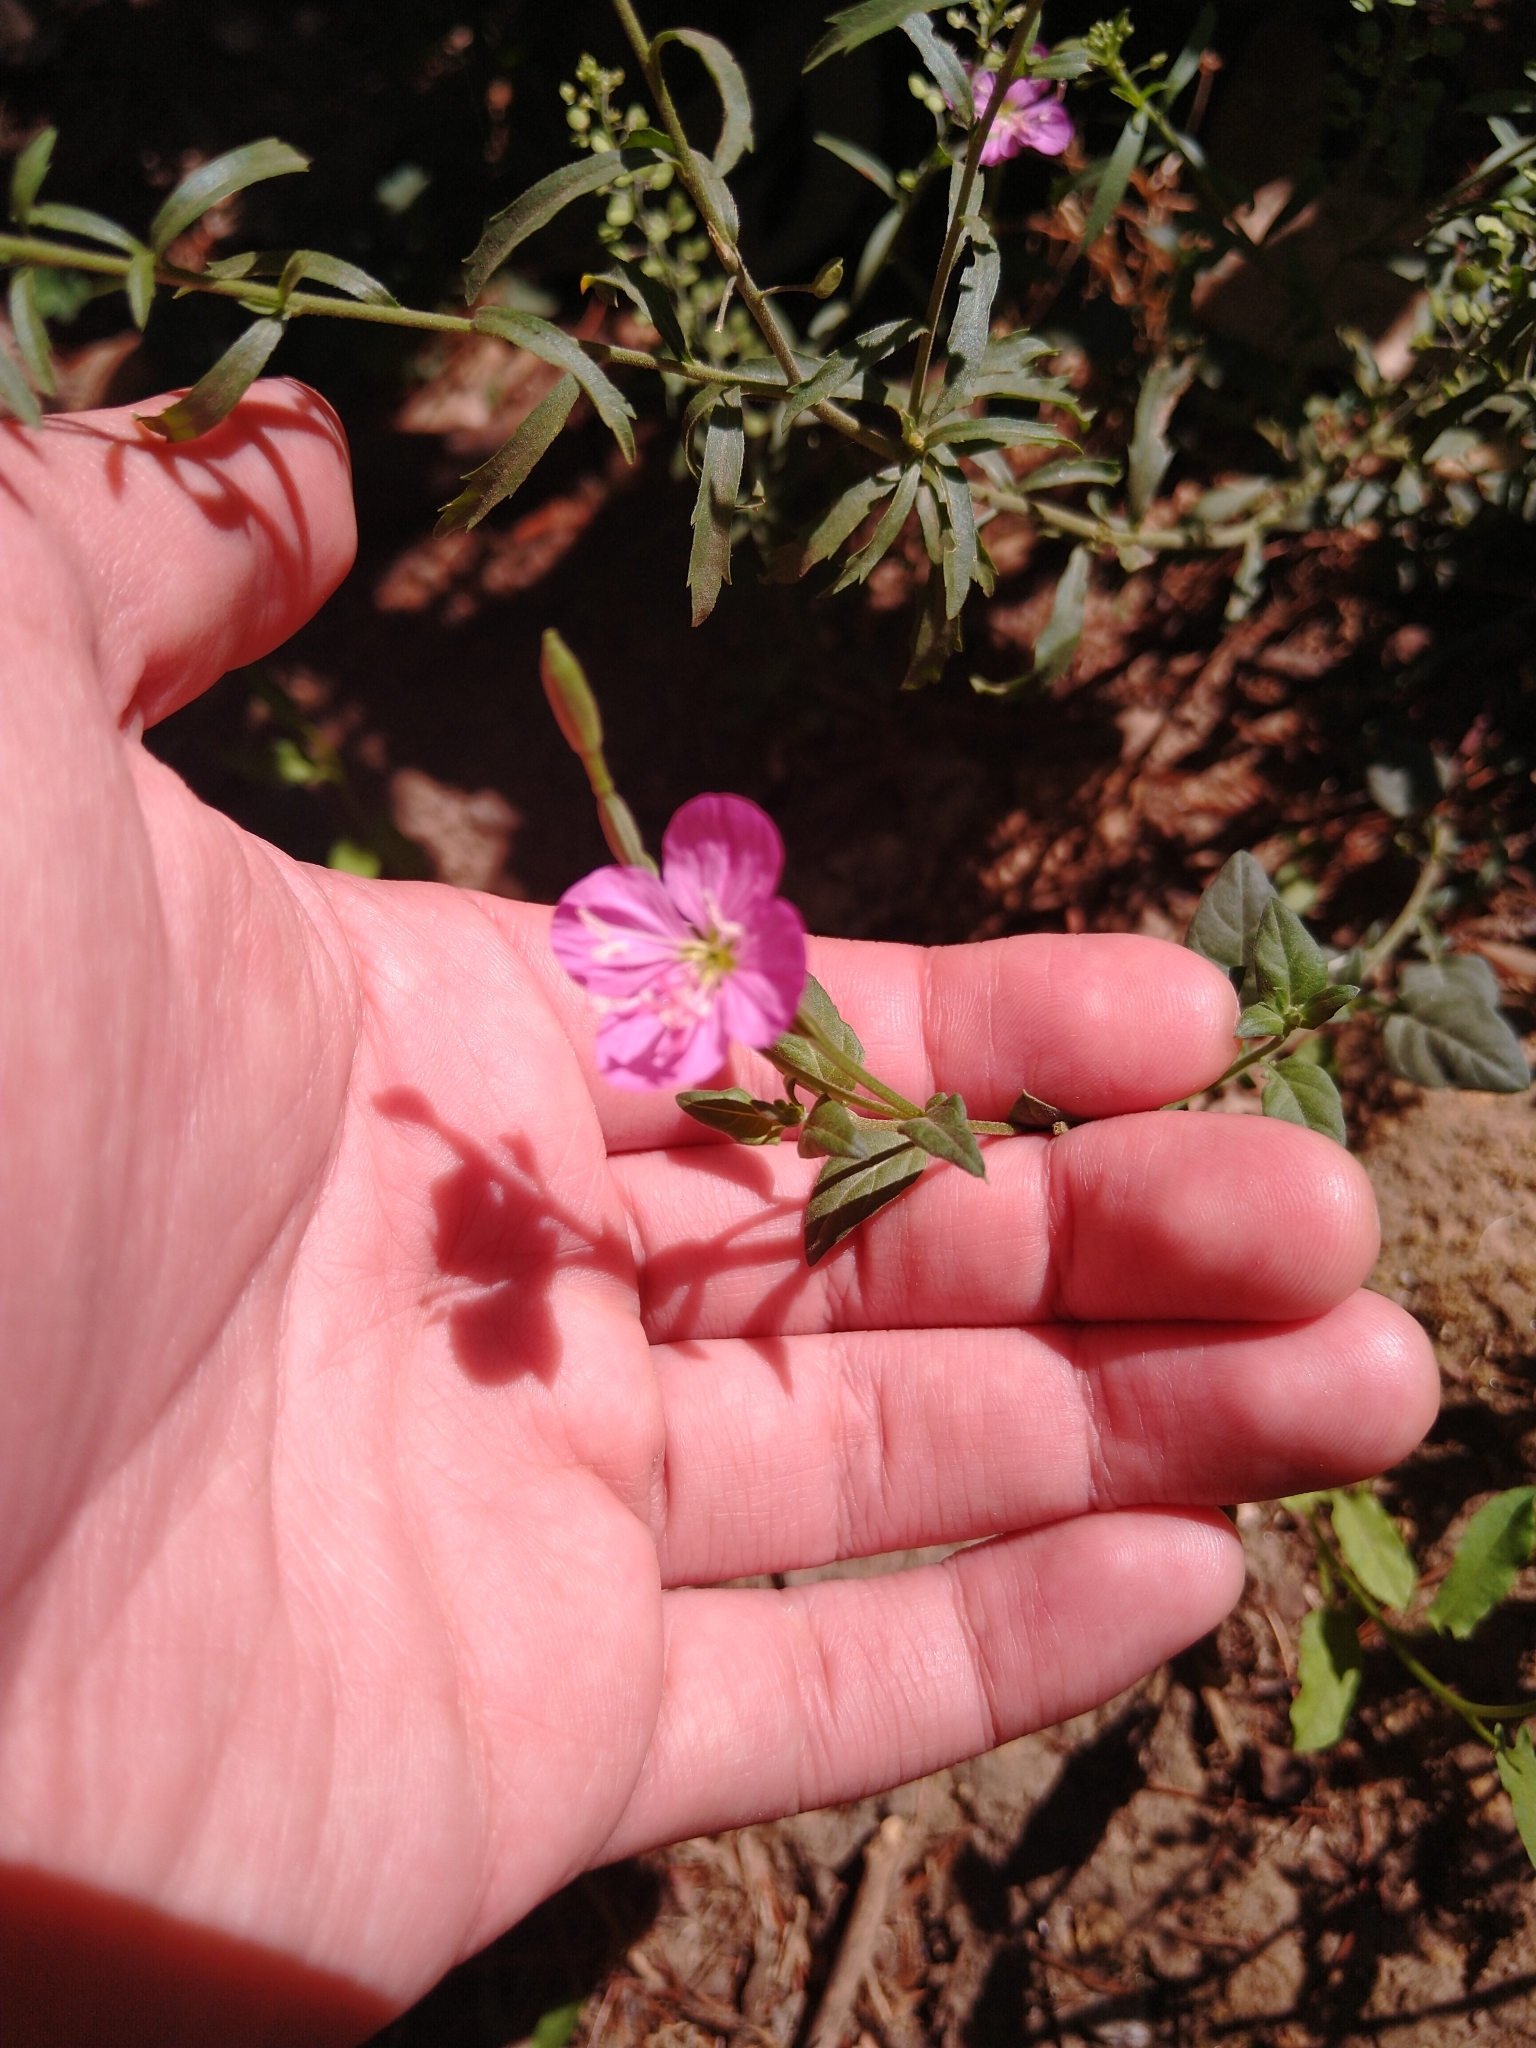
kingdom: Plantae
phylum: Tracheophyta
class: Magnoliopsida
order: Myrtales
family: Onagraceae
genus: Oenothera
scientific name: Oenothera rosea
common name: Rosy evening-primrose
